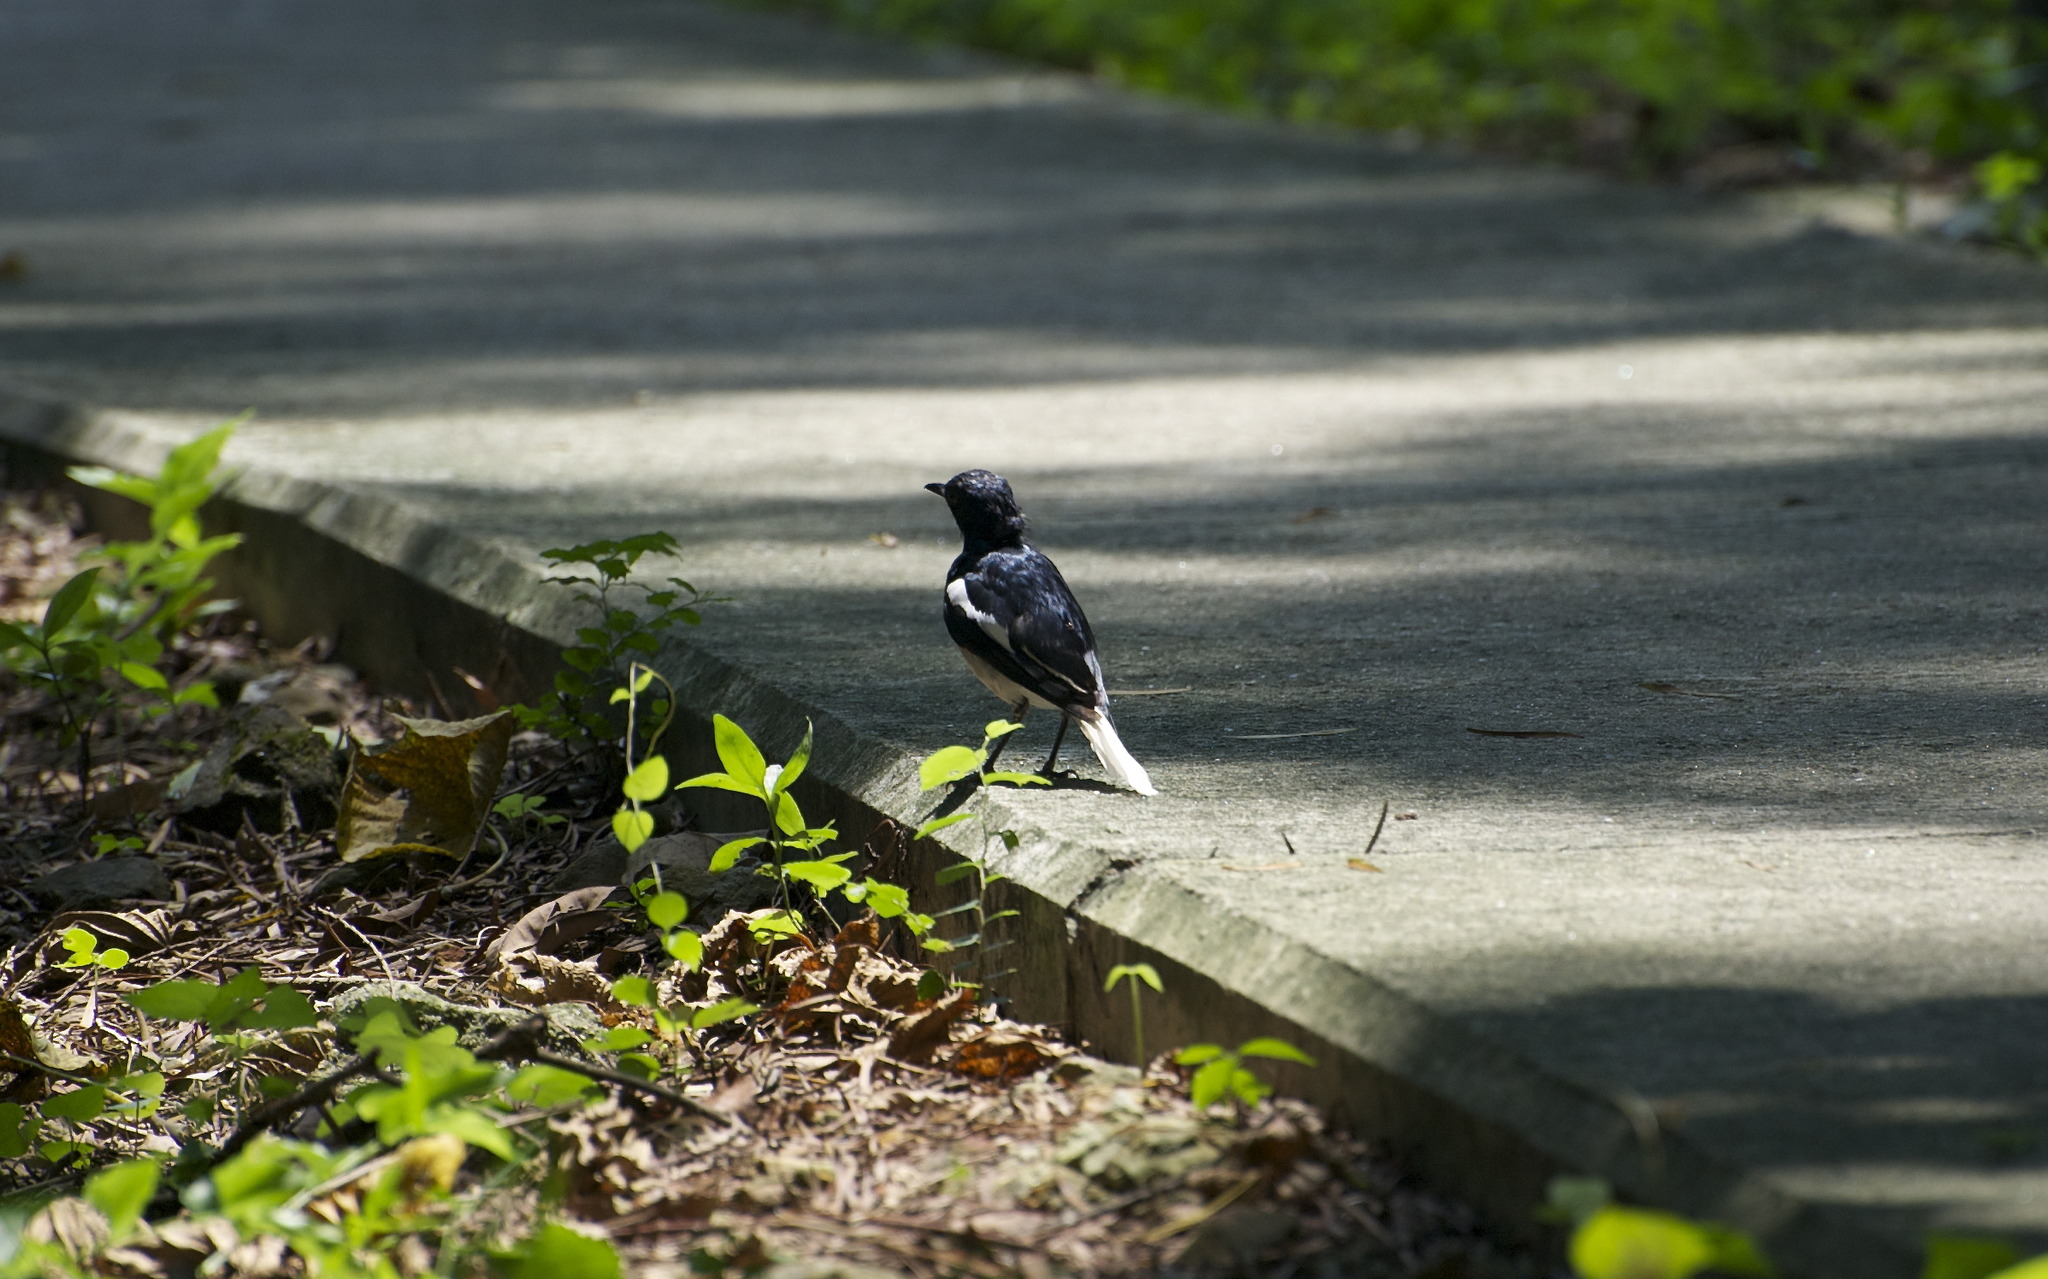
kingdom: Animalia
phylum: Chordata
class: Aves
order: Passeriformes
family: Muscicapidae
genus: Copsychus
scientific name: Copsychus saularis
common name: Oriental magpie-robin
